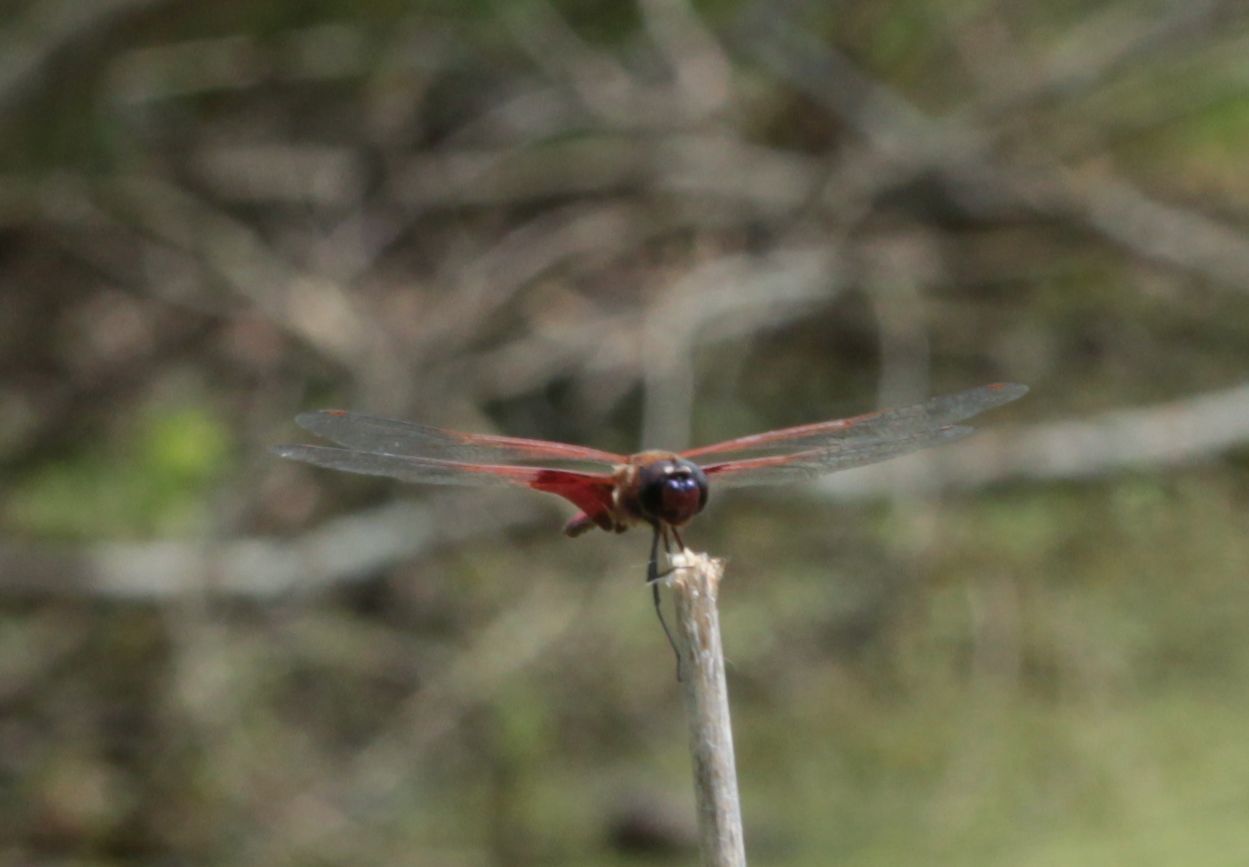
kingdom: Animalia
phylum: Arthropoda
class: Insecta
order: Odonata
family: Libellulidae
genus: Tramea
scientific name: Tramea carolina
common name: Carolina saddlebags
